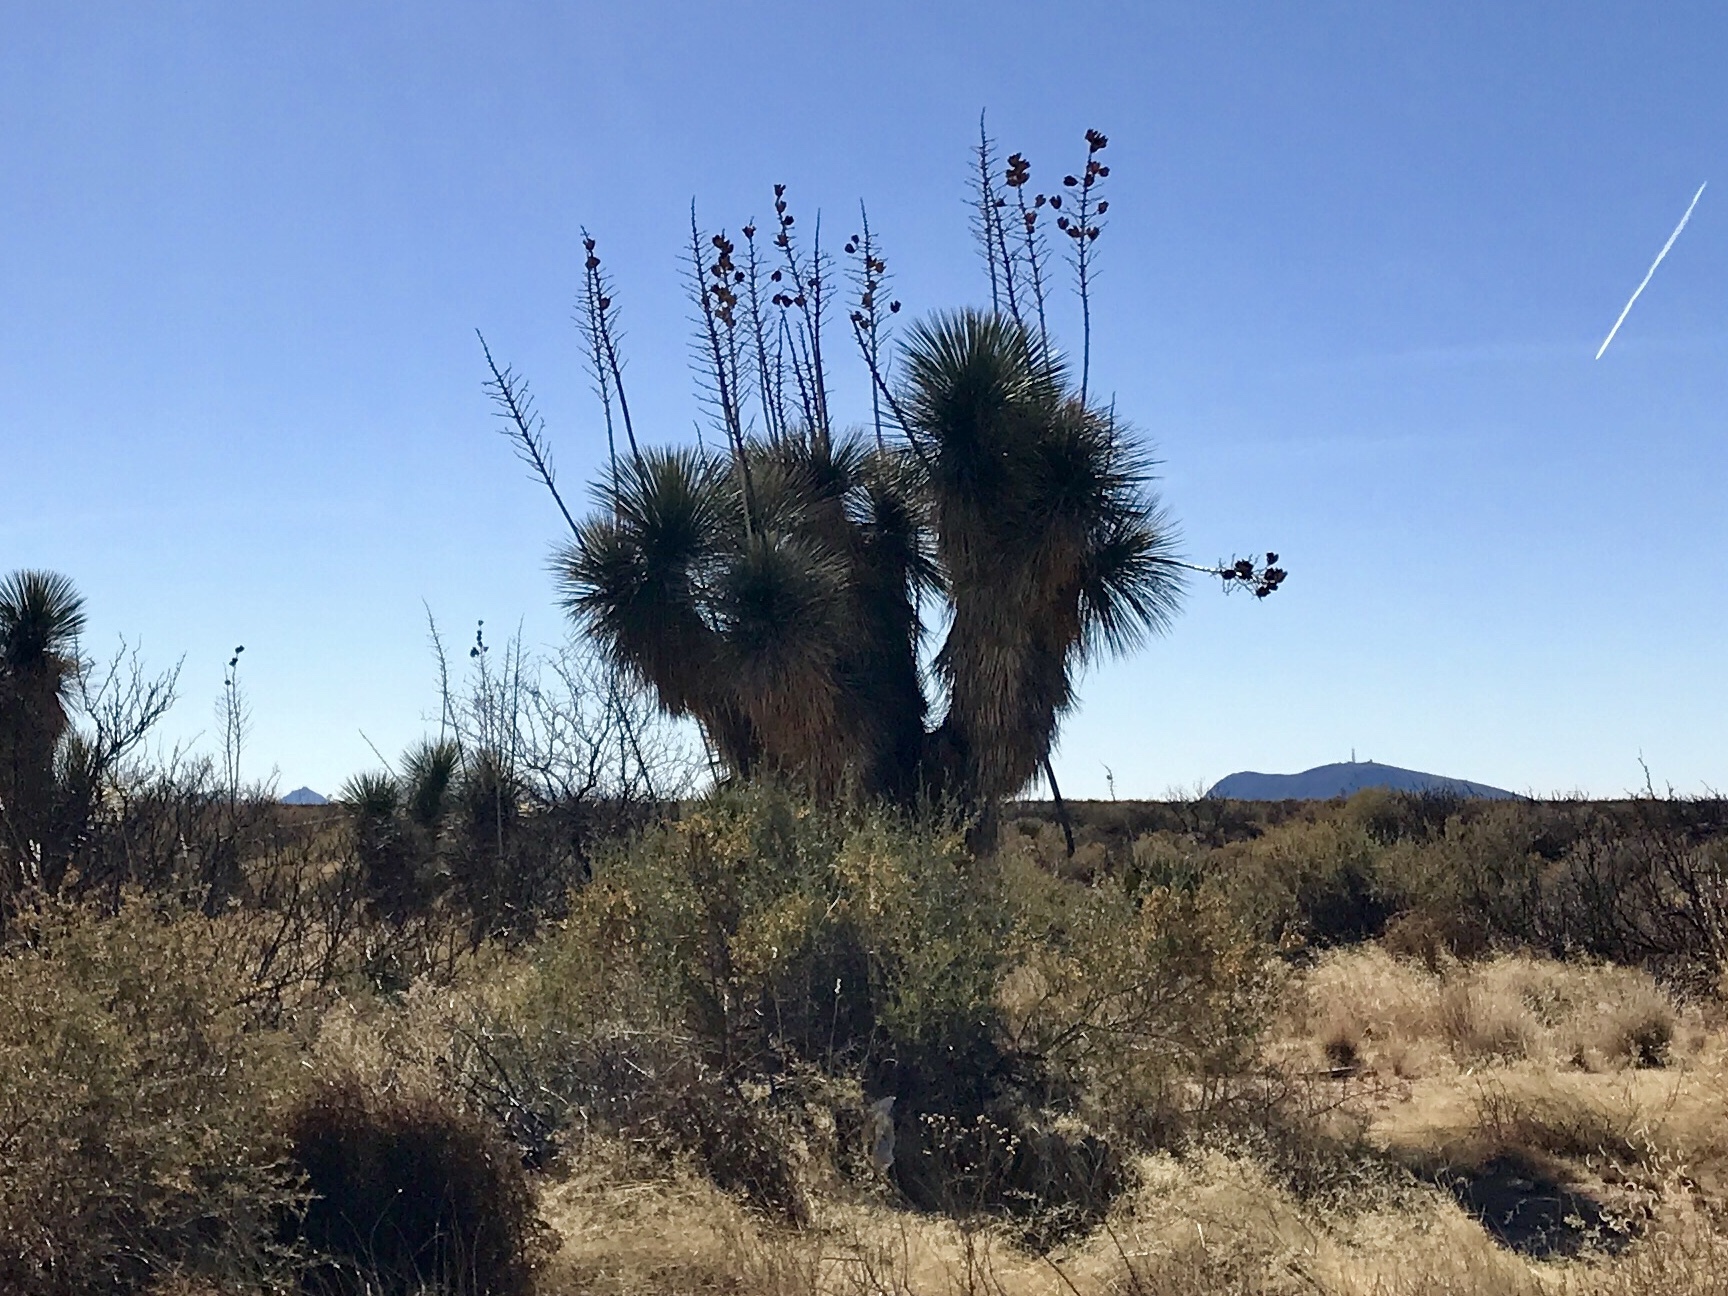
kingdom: Plantae
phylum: Tracheophyta
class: Liliopsida
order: Asparagales
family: Asparagaceae
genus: Yucca
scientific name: Yucca elata
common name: Palmella
